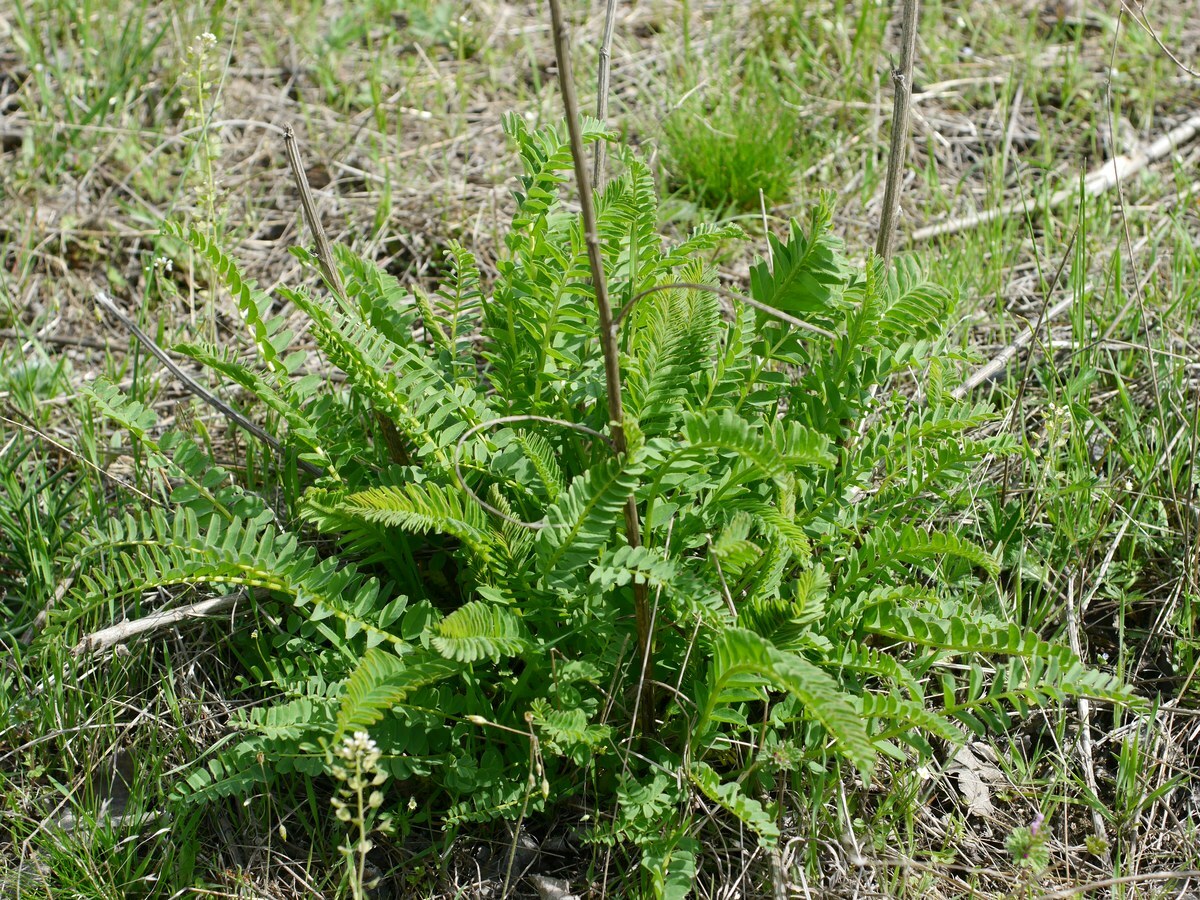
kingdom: Plantae
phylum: Tracheophyta
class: Magnoliopsida
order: Fabales
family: Fabaceae
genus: Astragalus
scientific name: Astragalus ponticus
